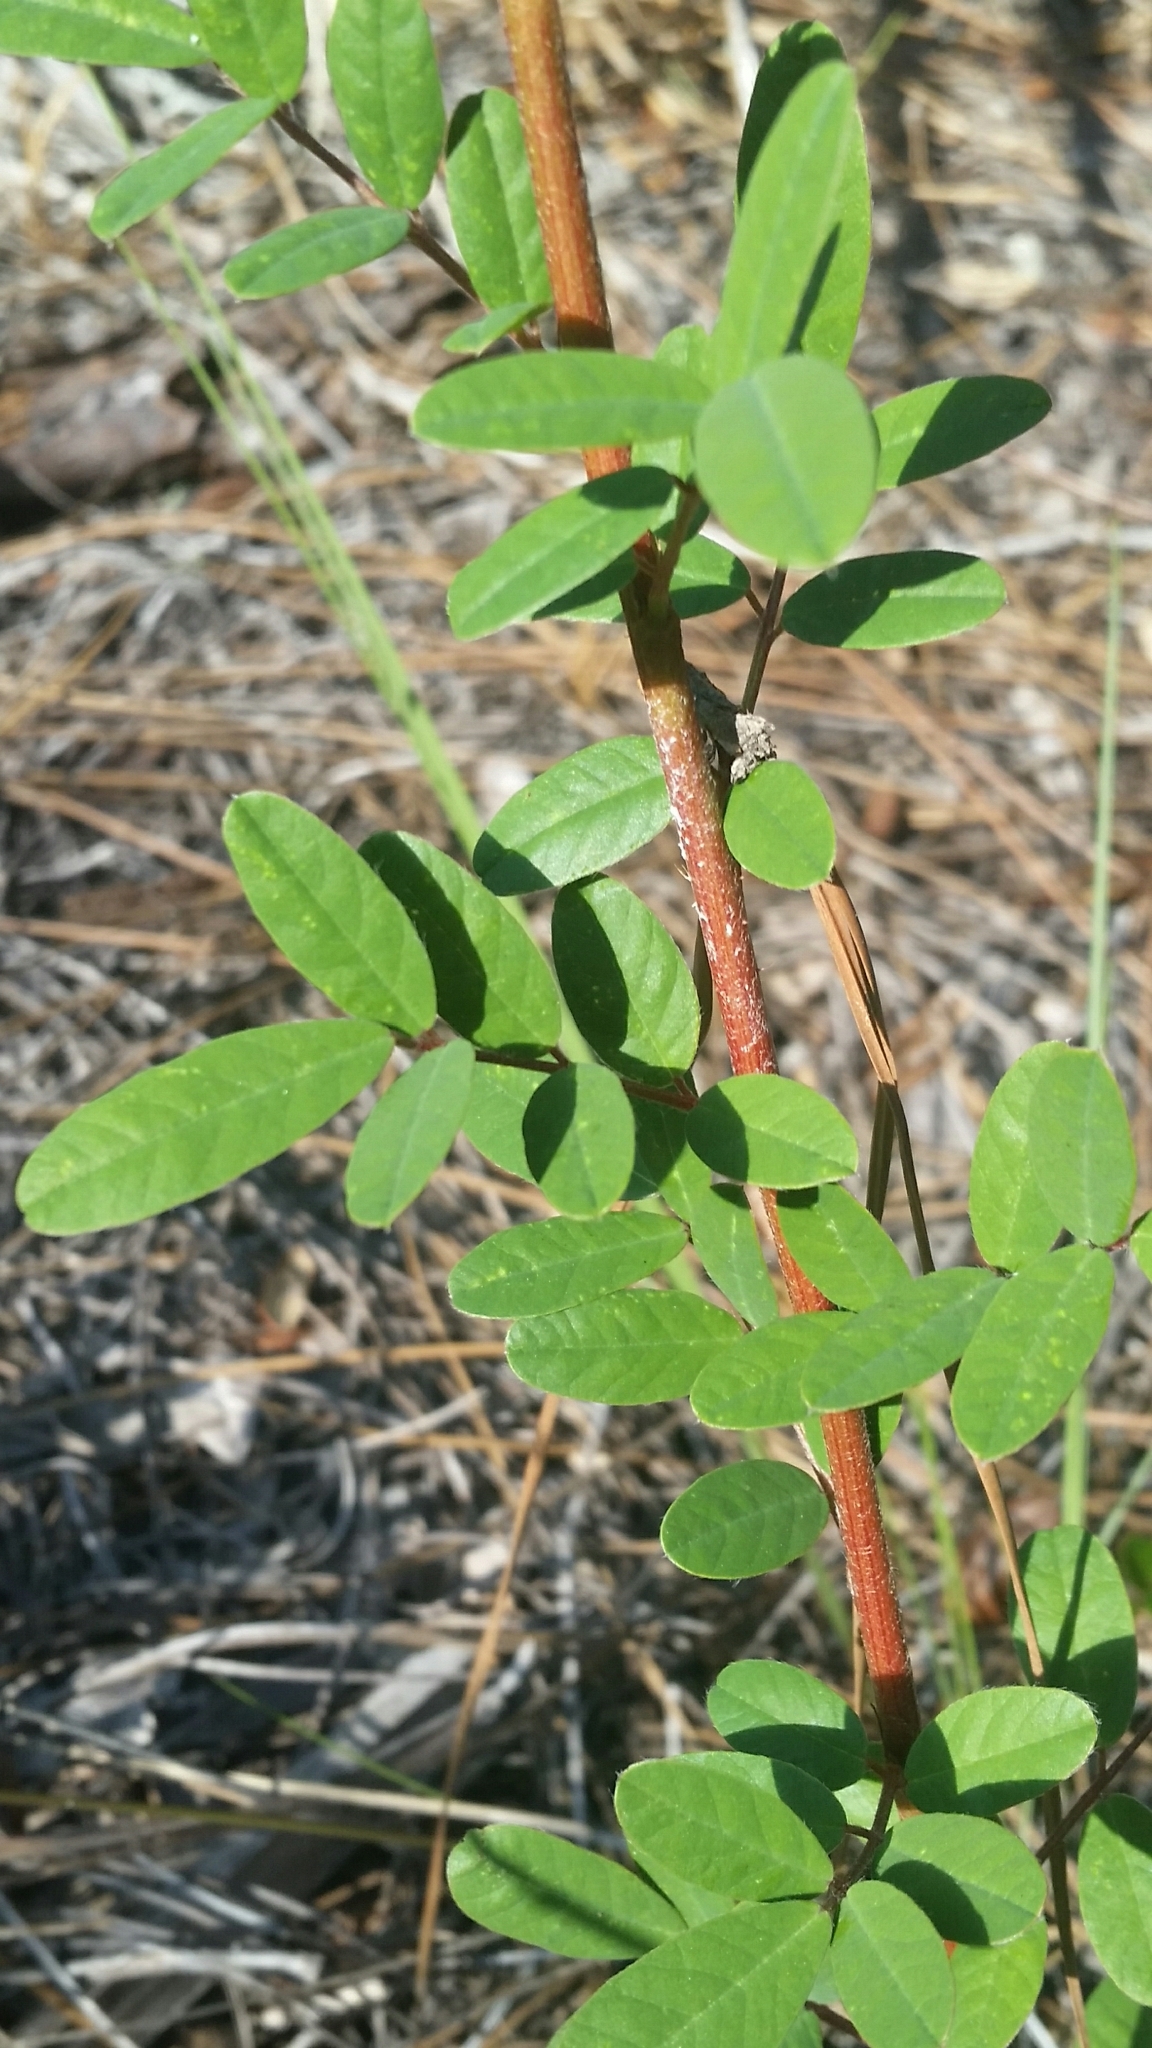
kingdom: Plantae
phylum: Tracheophyta
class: Magnoliopsida
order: Fabales
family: Fabaceae
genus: Chapmannia
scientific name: Chapmannia floridana
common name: Alicia
